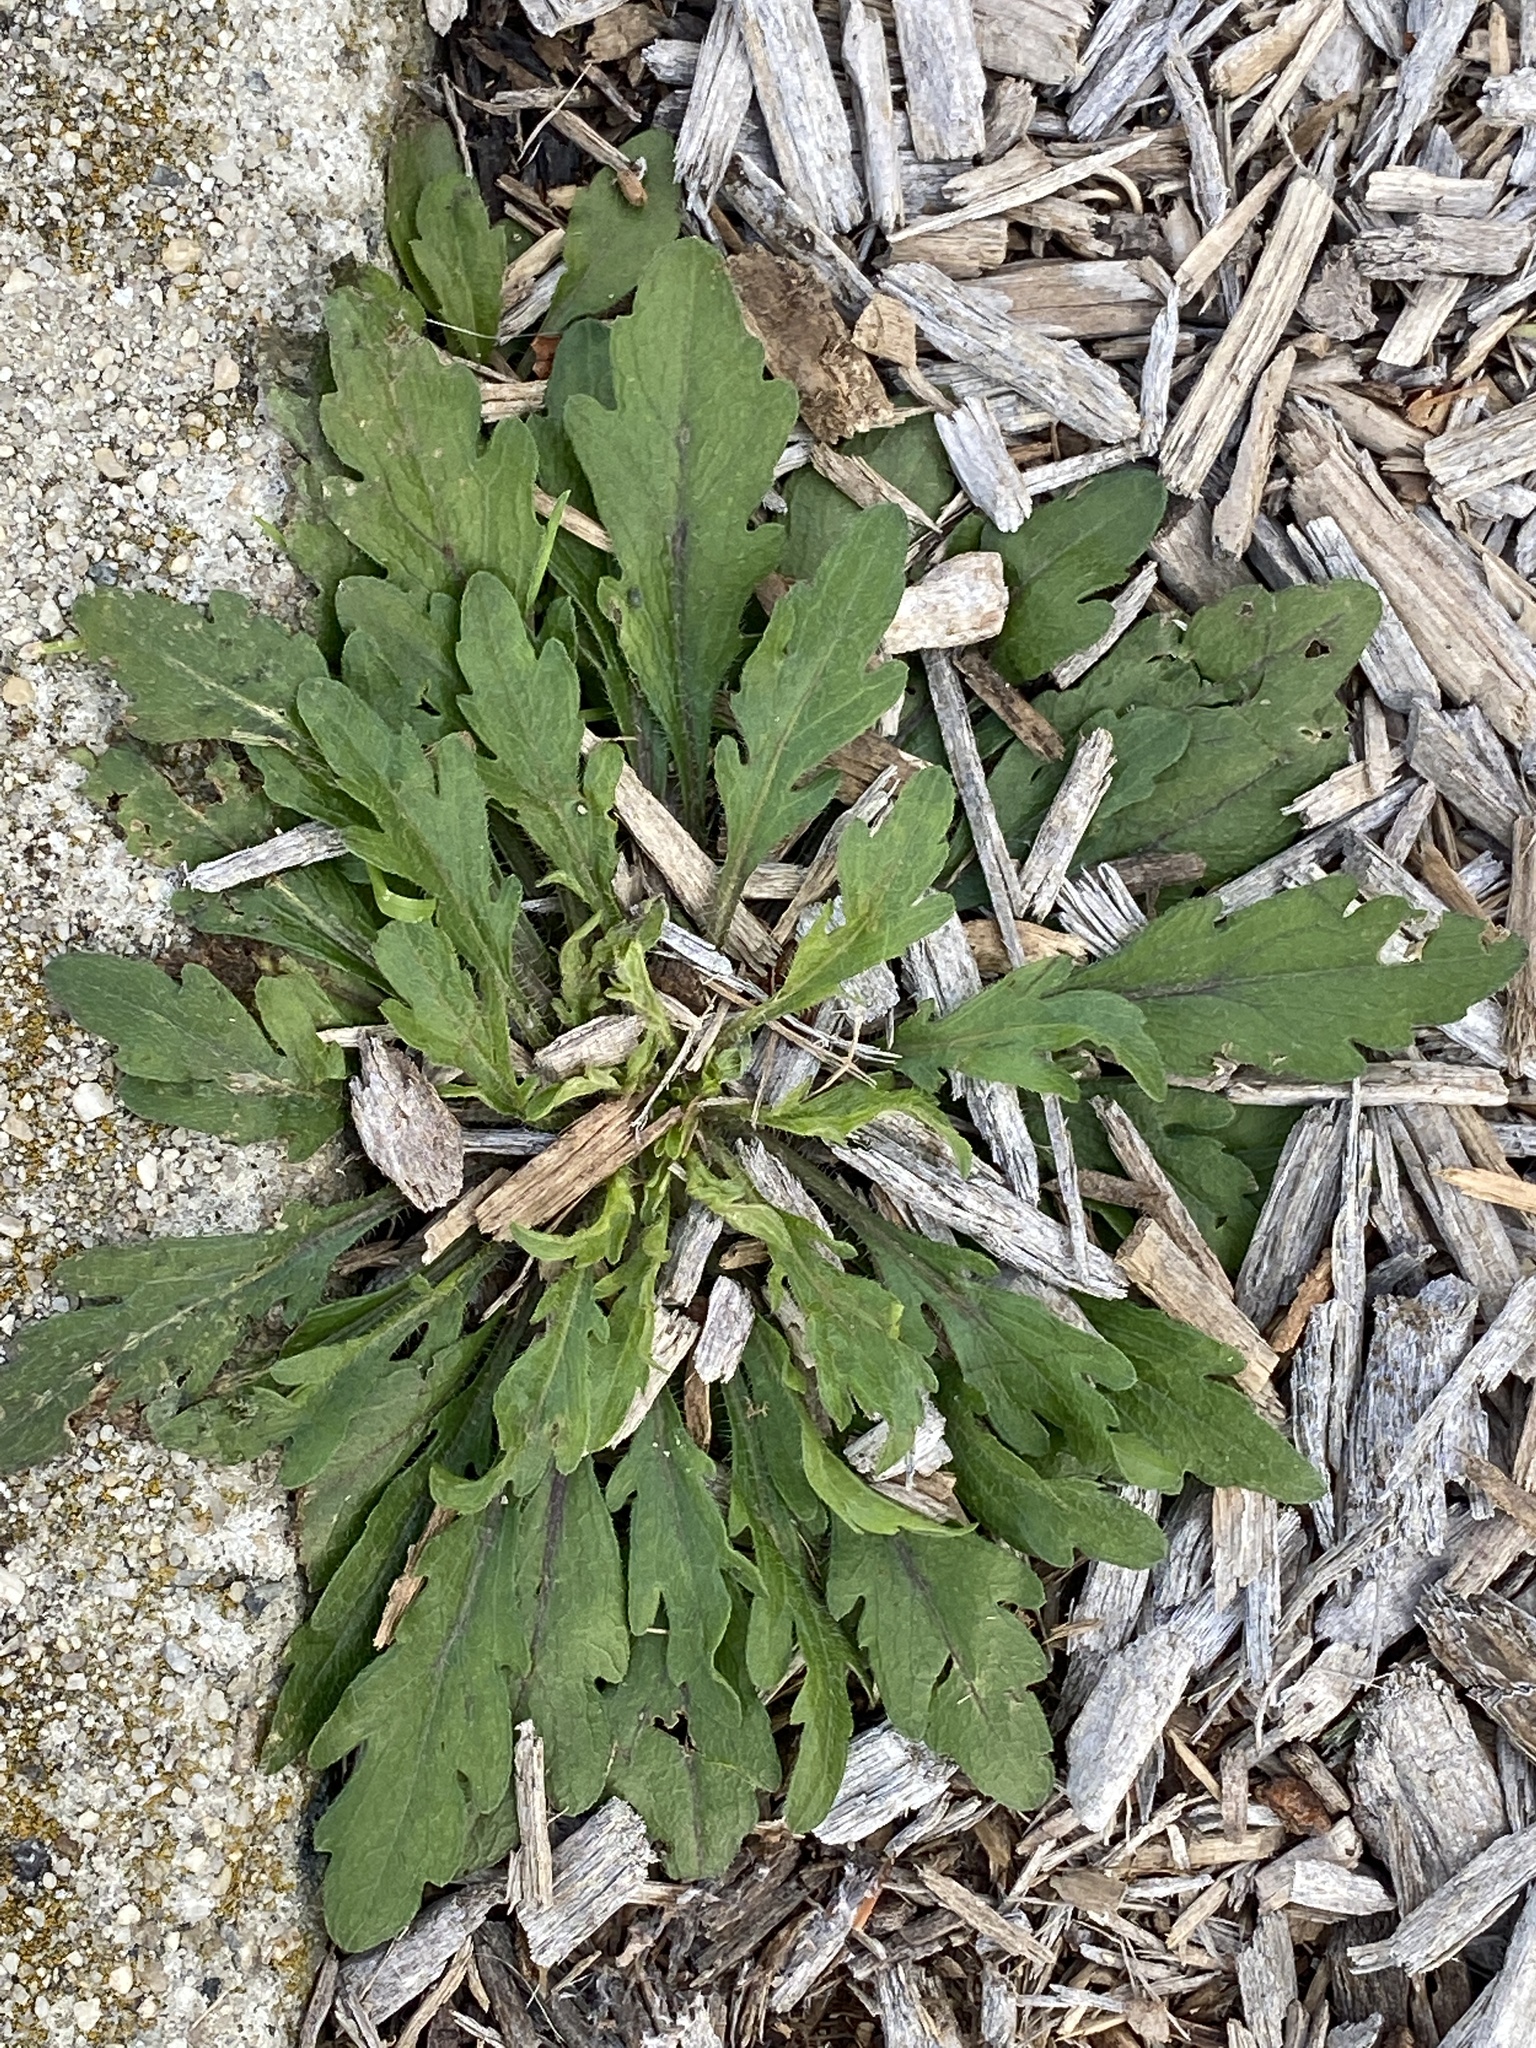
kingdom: Plantae
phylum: Tracheophyta
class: Magnoliopsida
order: Asterales
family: Asteraceae
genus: Erigeron
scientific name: Erigeron canadensis
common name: Canadian fleabane
